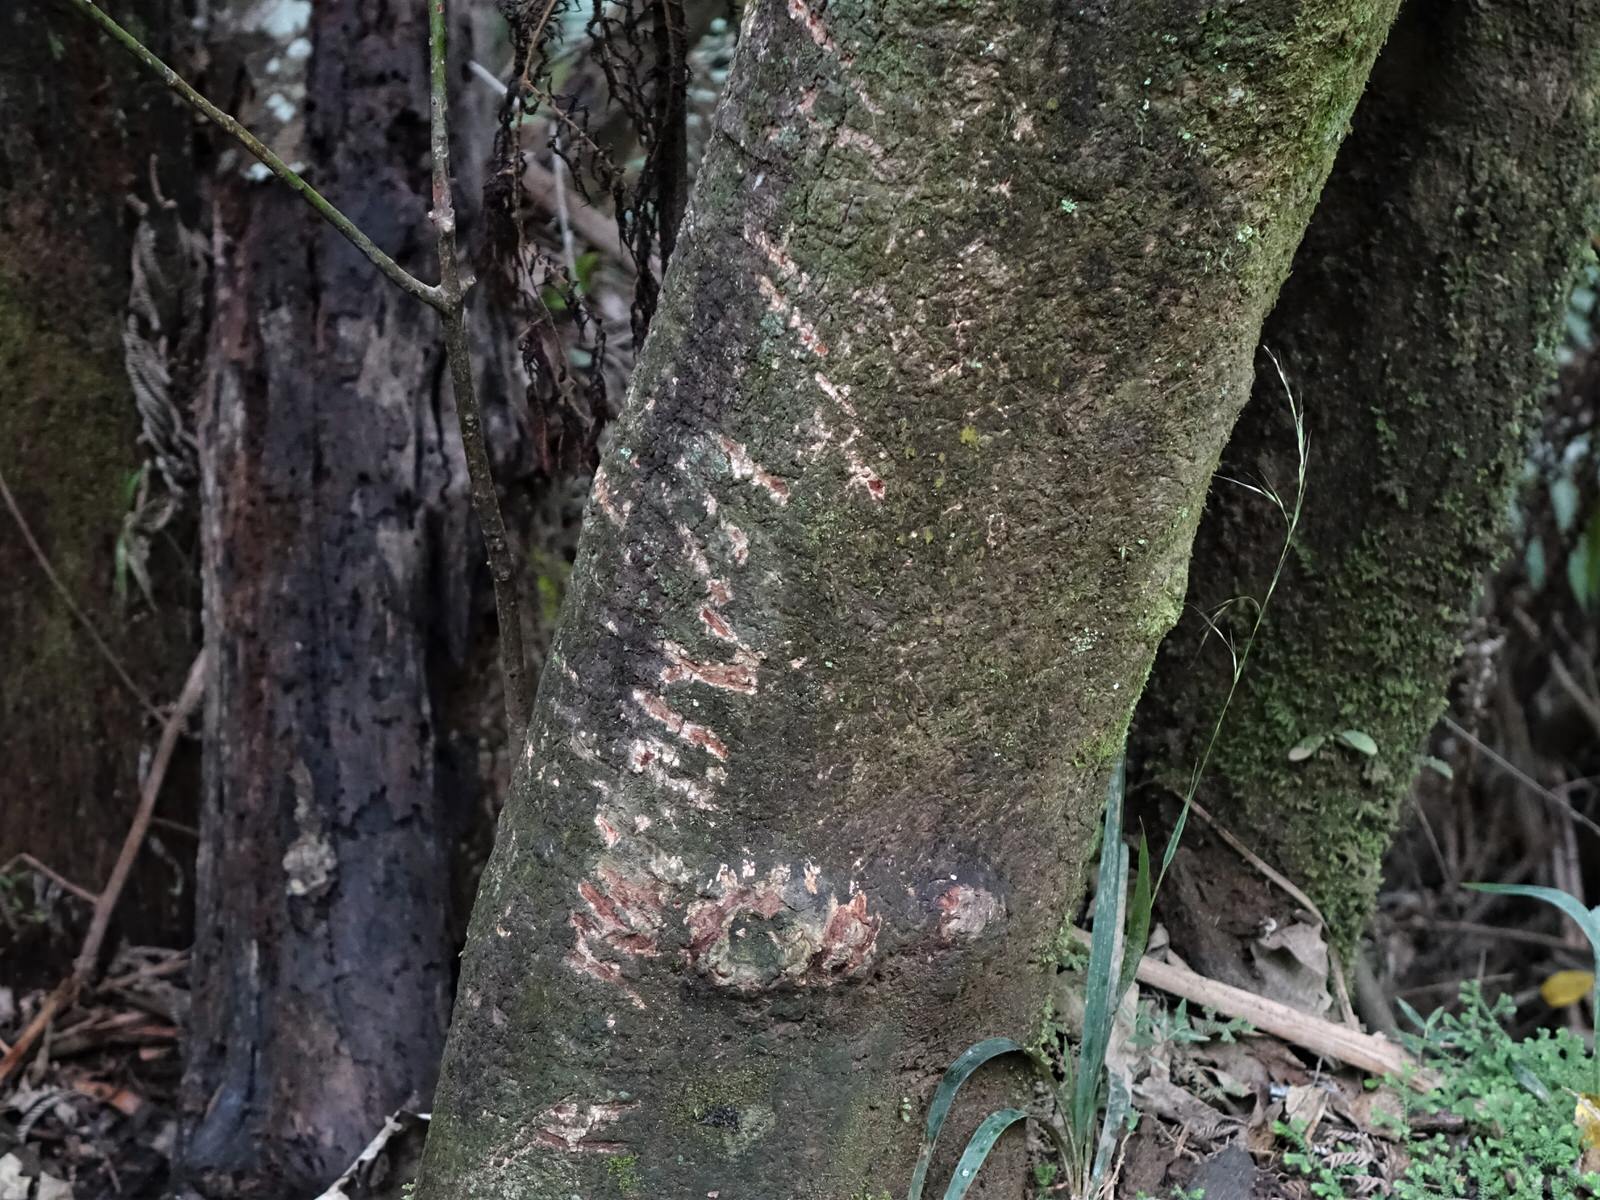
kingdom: Animalia
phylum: Chordata
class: Mammalia
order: Diprotodontia
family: Phalangeridae
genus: Trichosurus
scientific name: Trichosurus vulpecula
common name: Common brushtail
